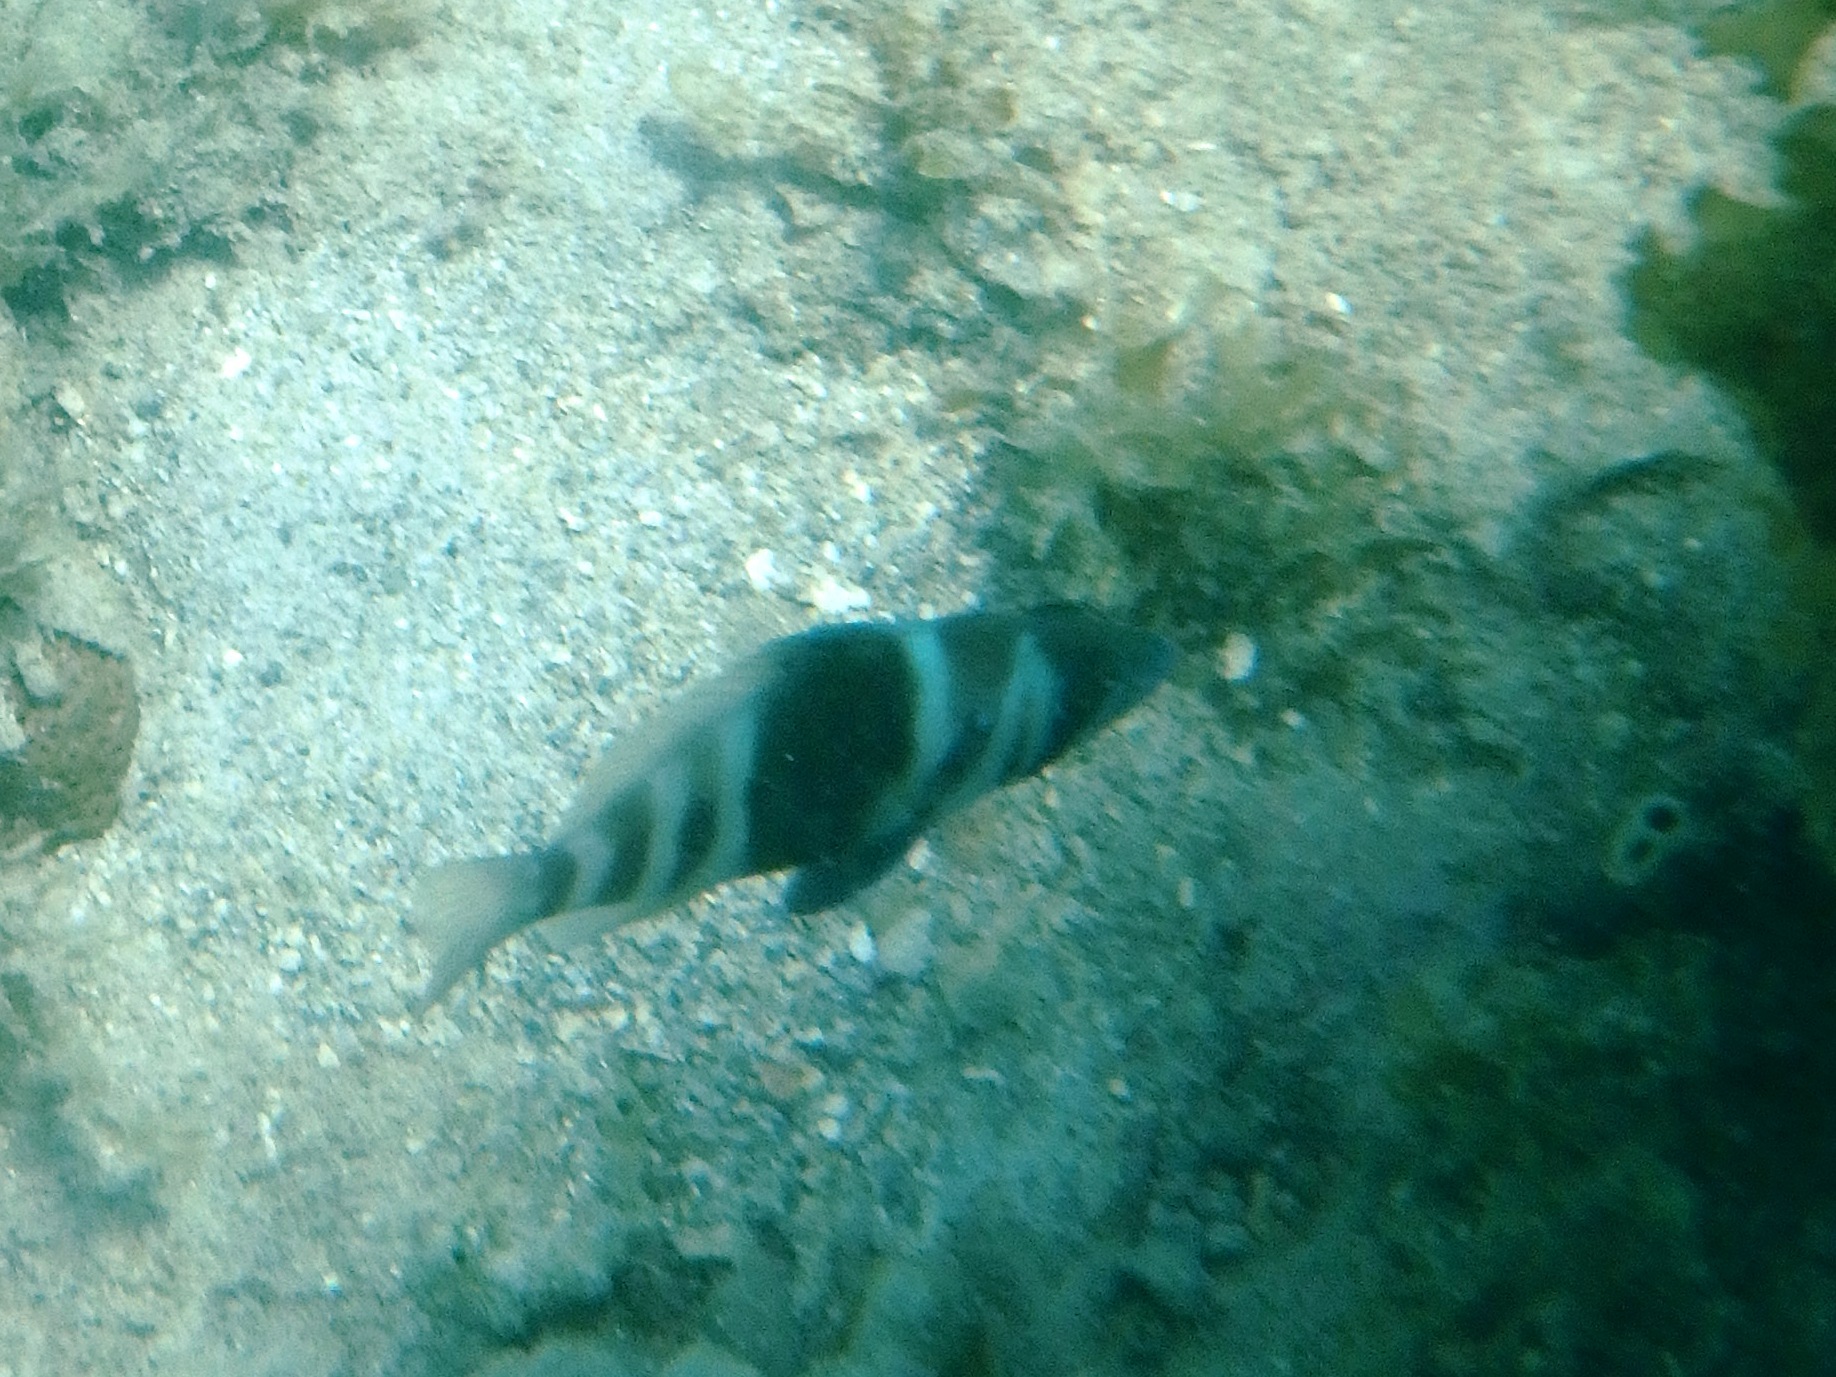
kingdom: Animalia
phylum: Chordata
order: Perciformes
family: Serranidae
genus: Hypoplectrus
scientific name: Hypoplectrus indigo
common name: Indigo hamlet
